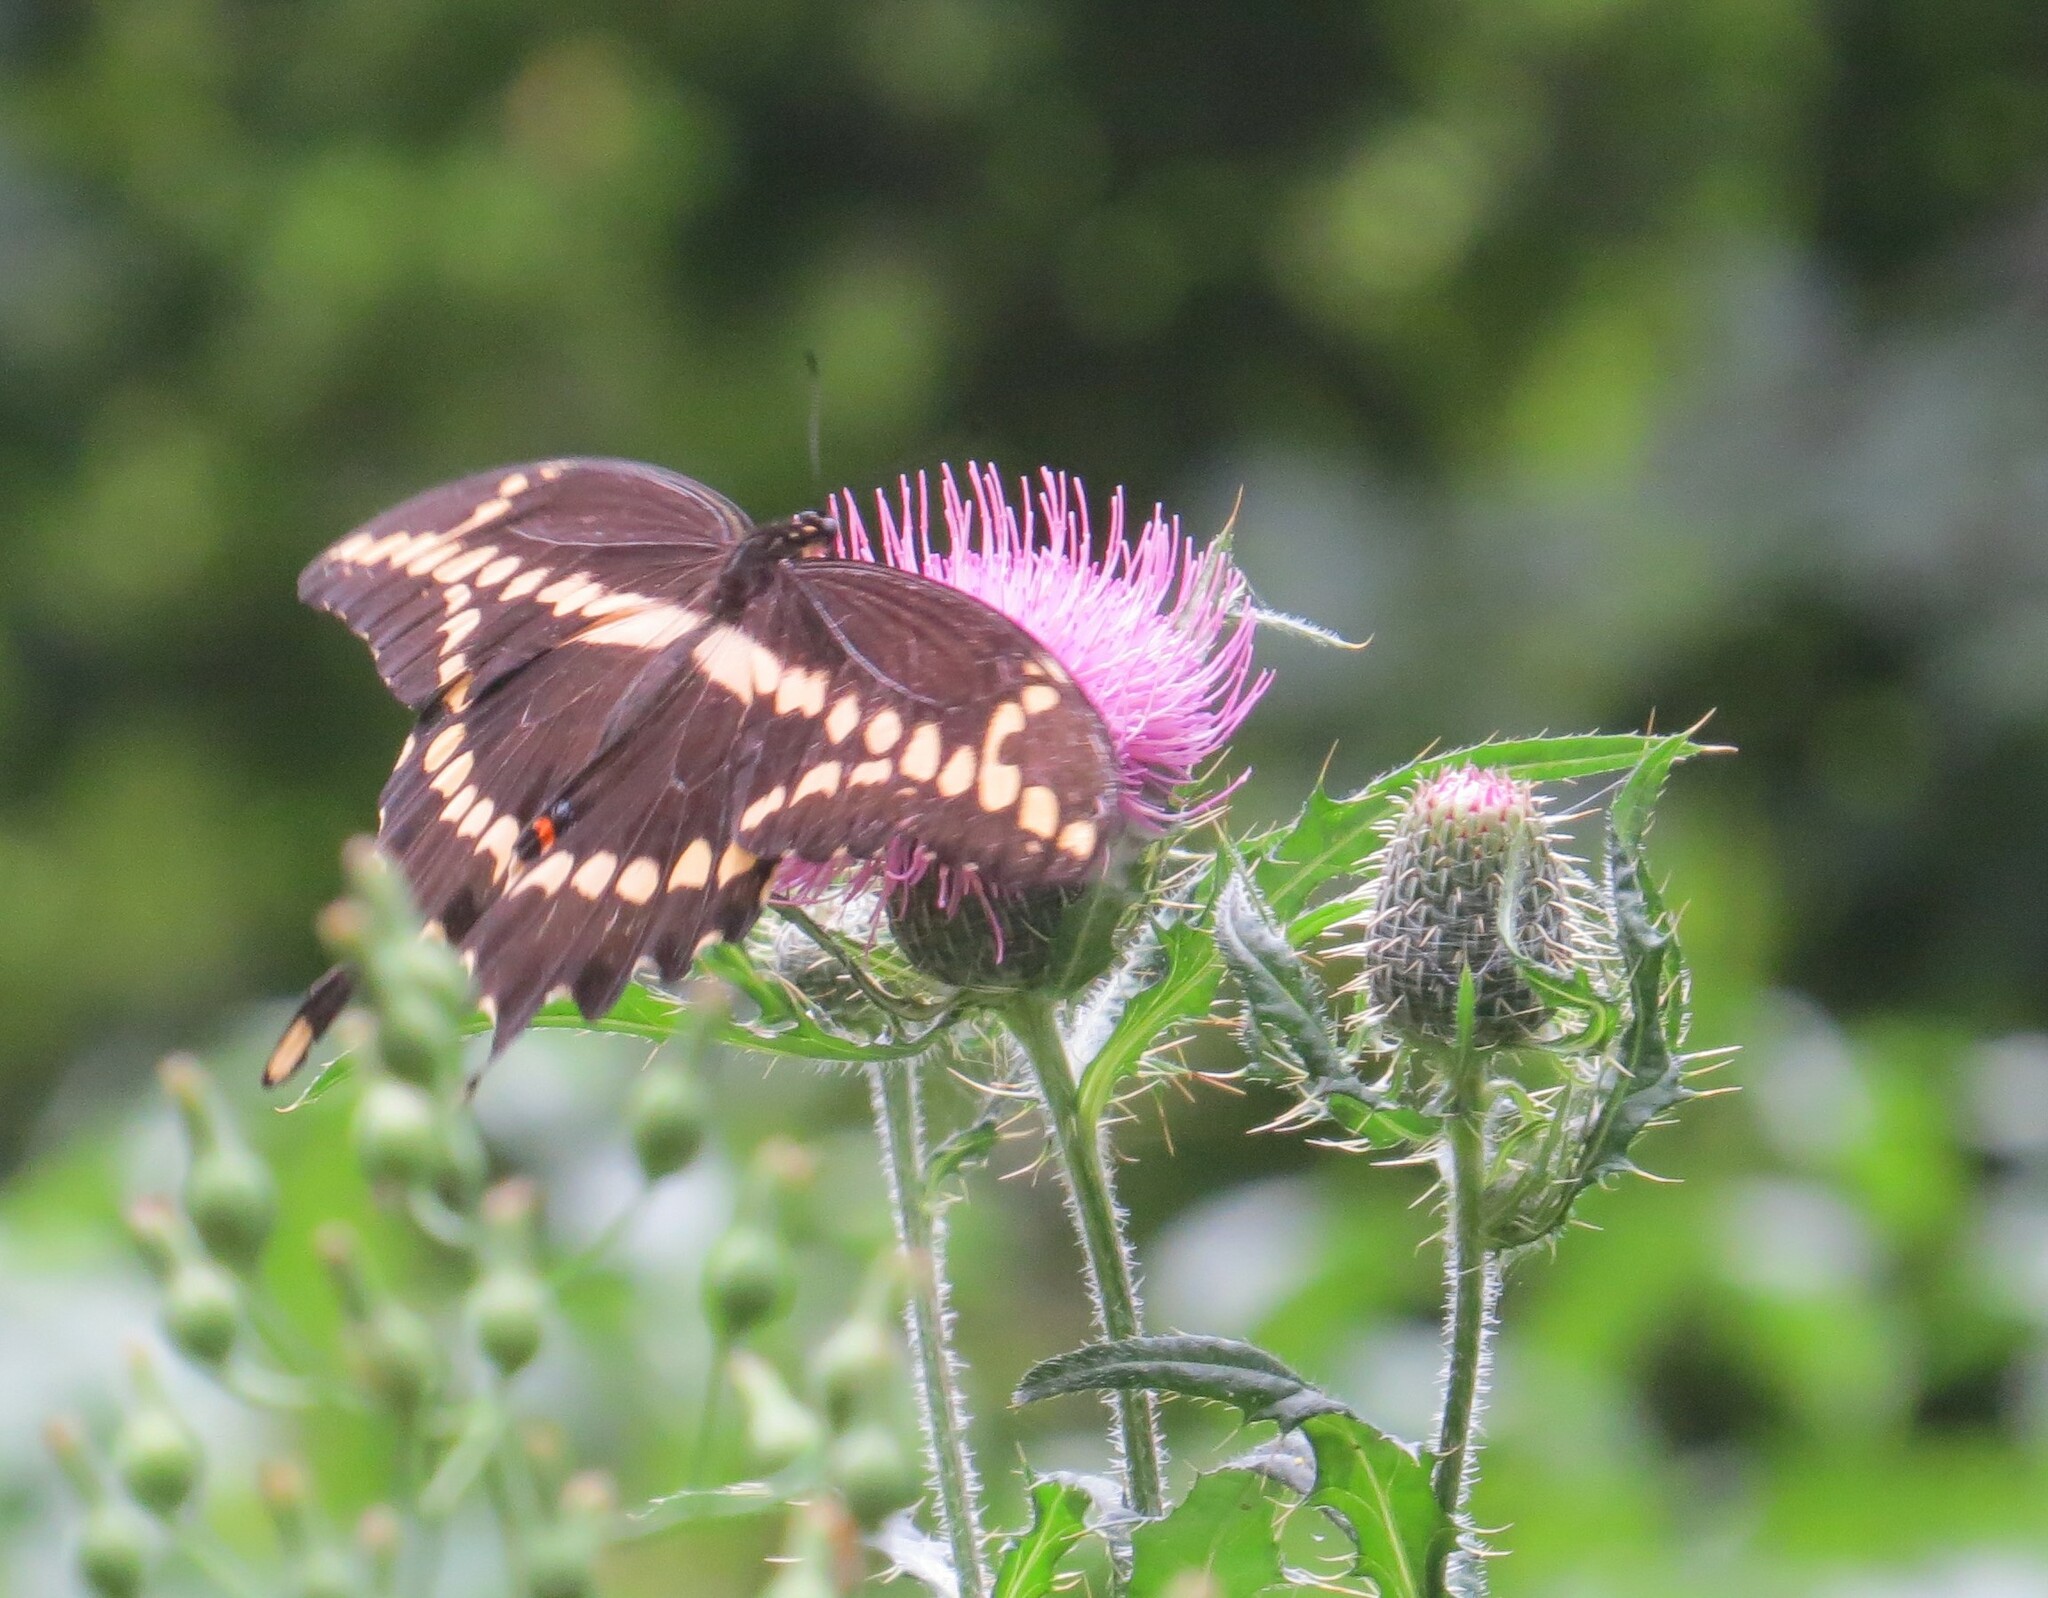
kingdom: Animalia
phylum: Arthropoda
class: Insecta
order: Lepidoptera
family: Papilionidae
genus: Papilio
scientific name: Papilio cresphontes
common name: Giant swallowtail
